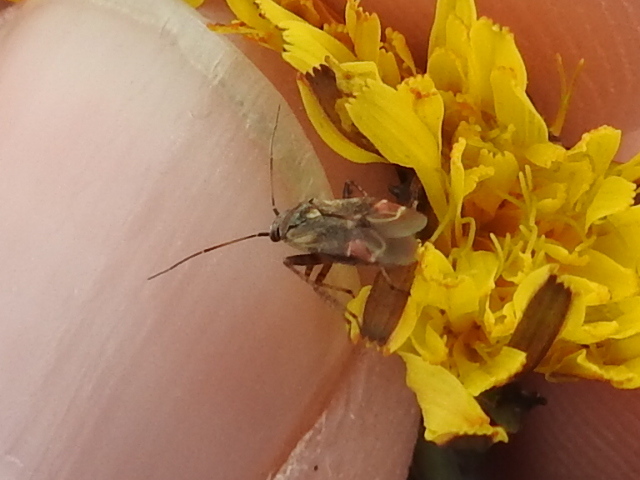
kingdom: Animalia
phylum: Arthropoda
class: Insecta
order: Hemiptera
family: Miridae
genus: Polymerus
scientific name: Polymerus basalis
